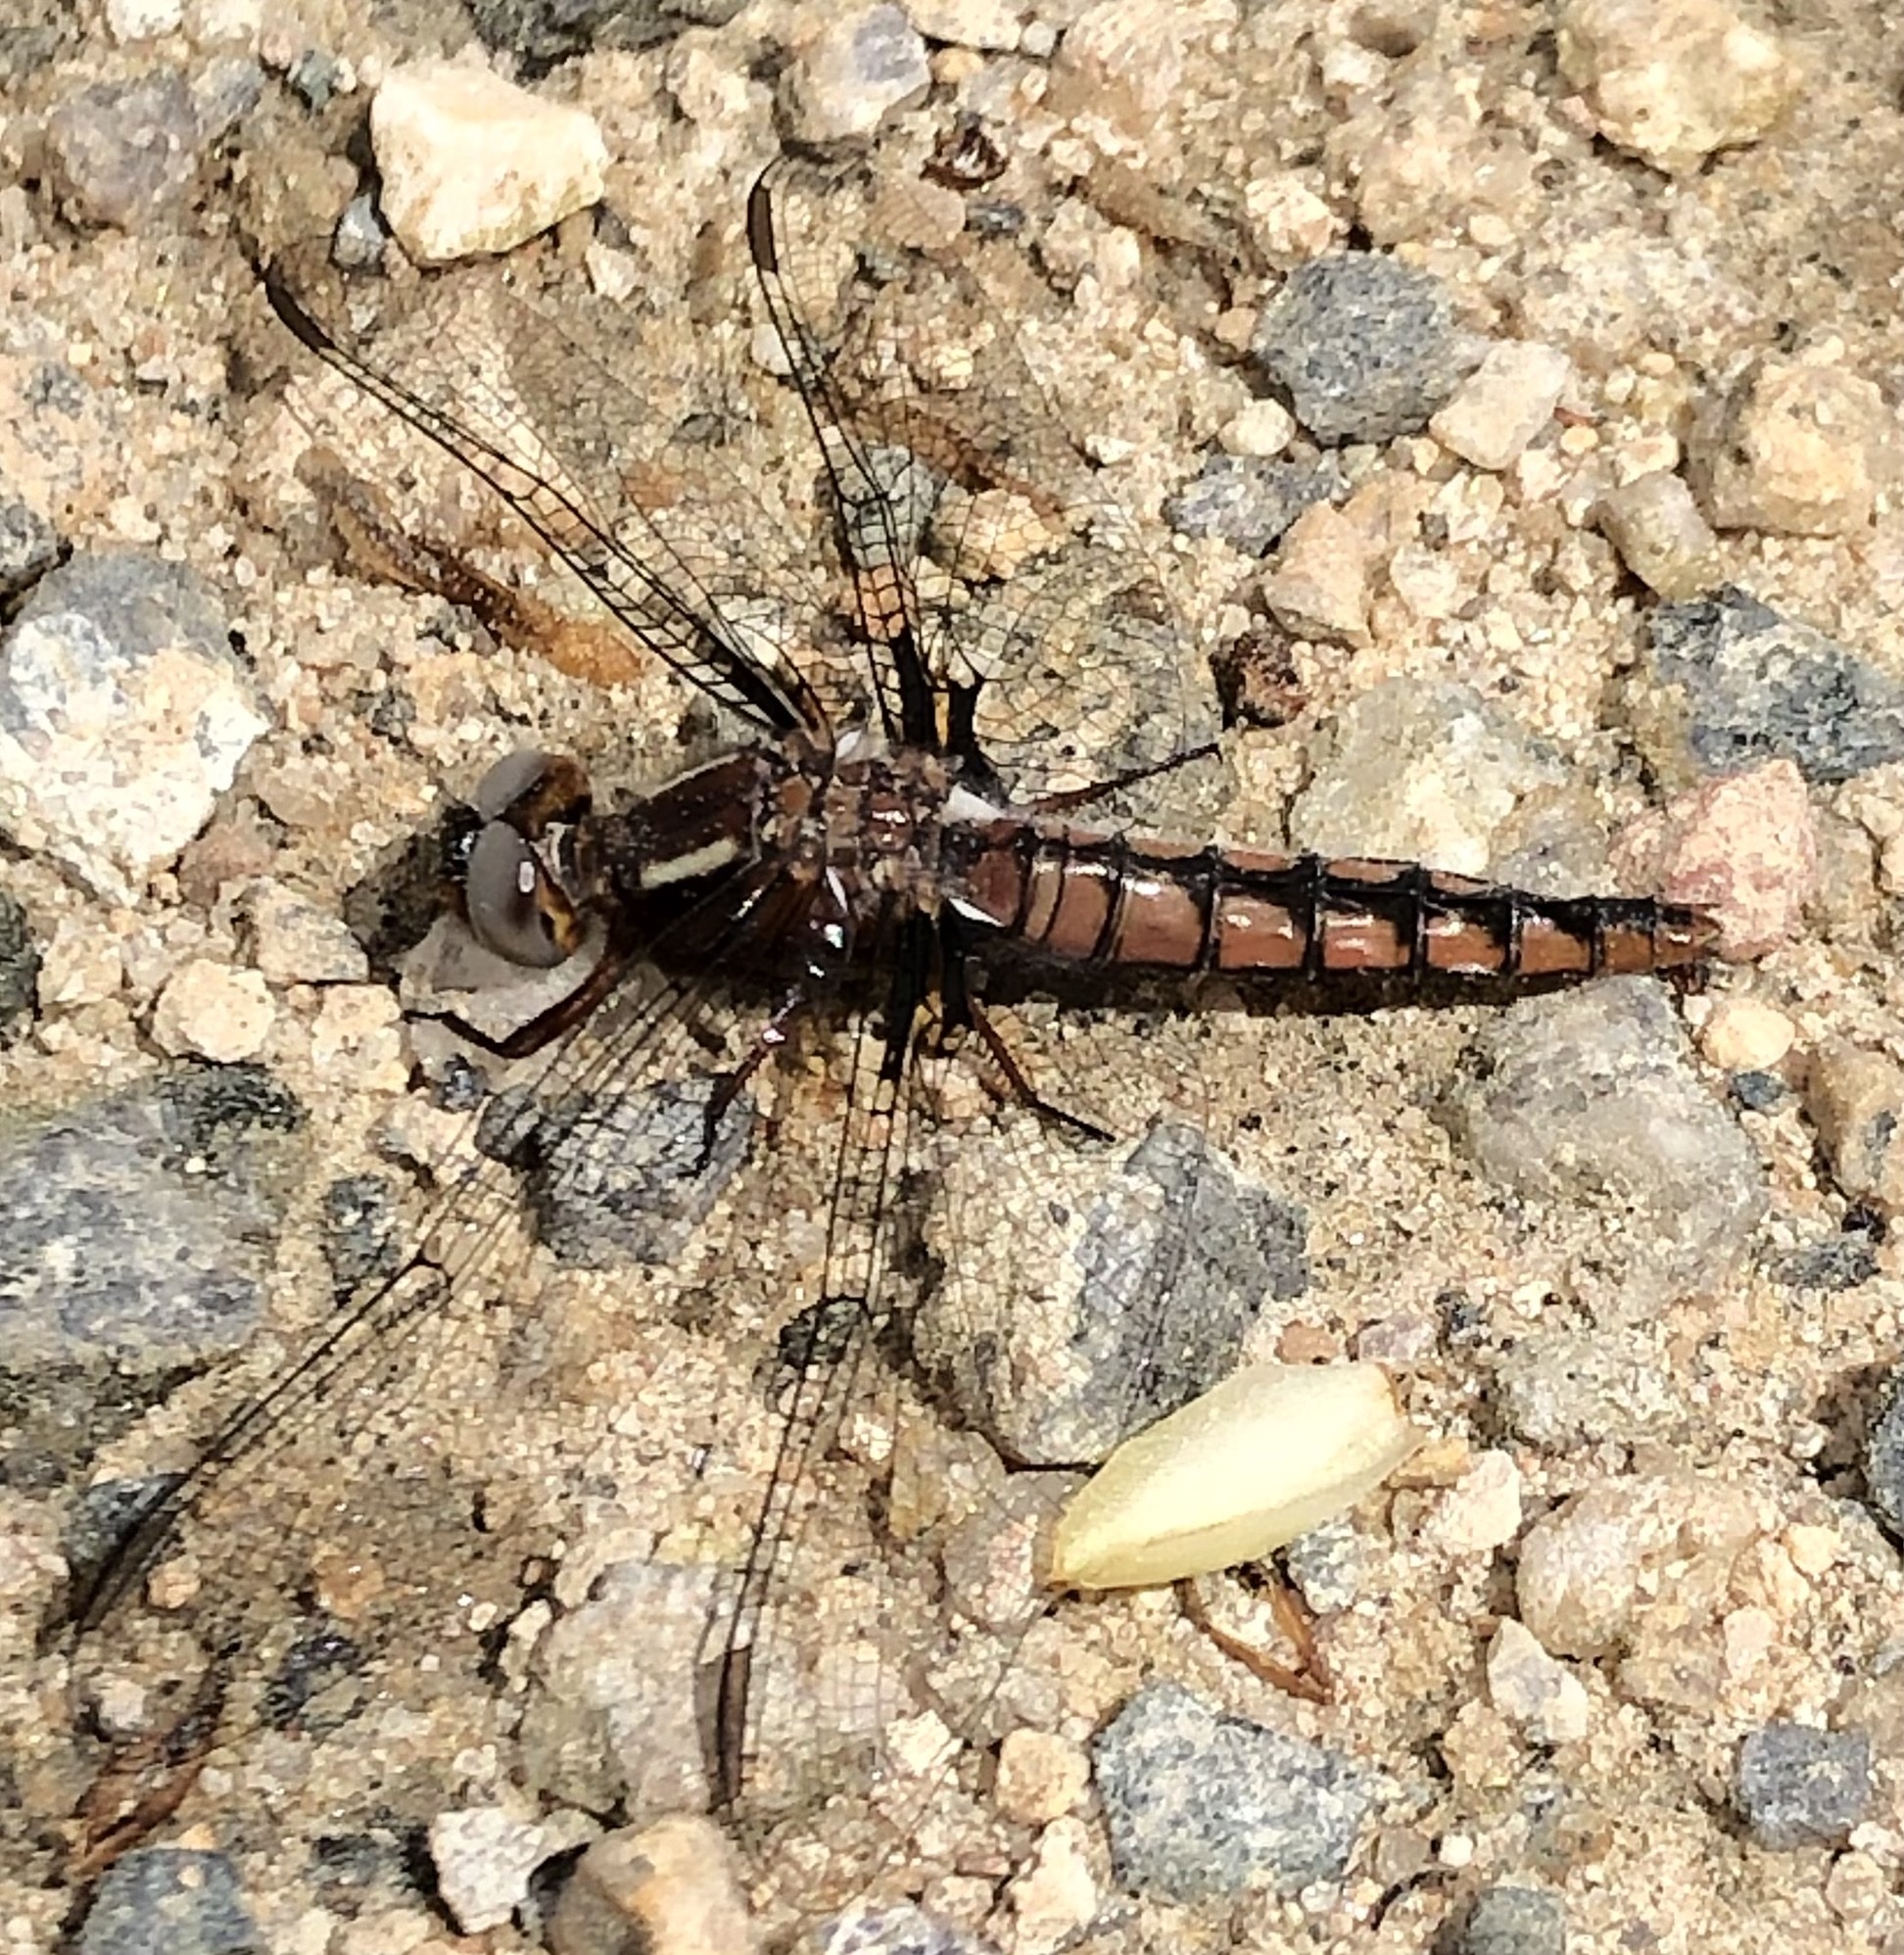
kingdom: Animalia
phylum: Arthropoda
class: Insecta
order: Odonata
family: Libellulidae
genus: Ladona
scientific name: Ladona deplanata
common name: Blue corporal
